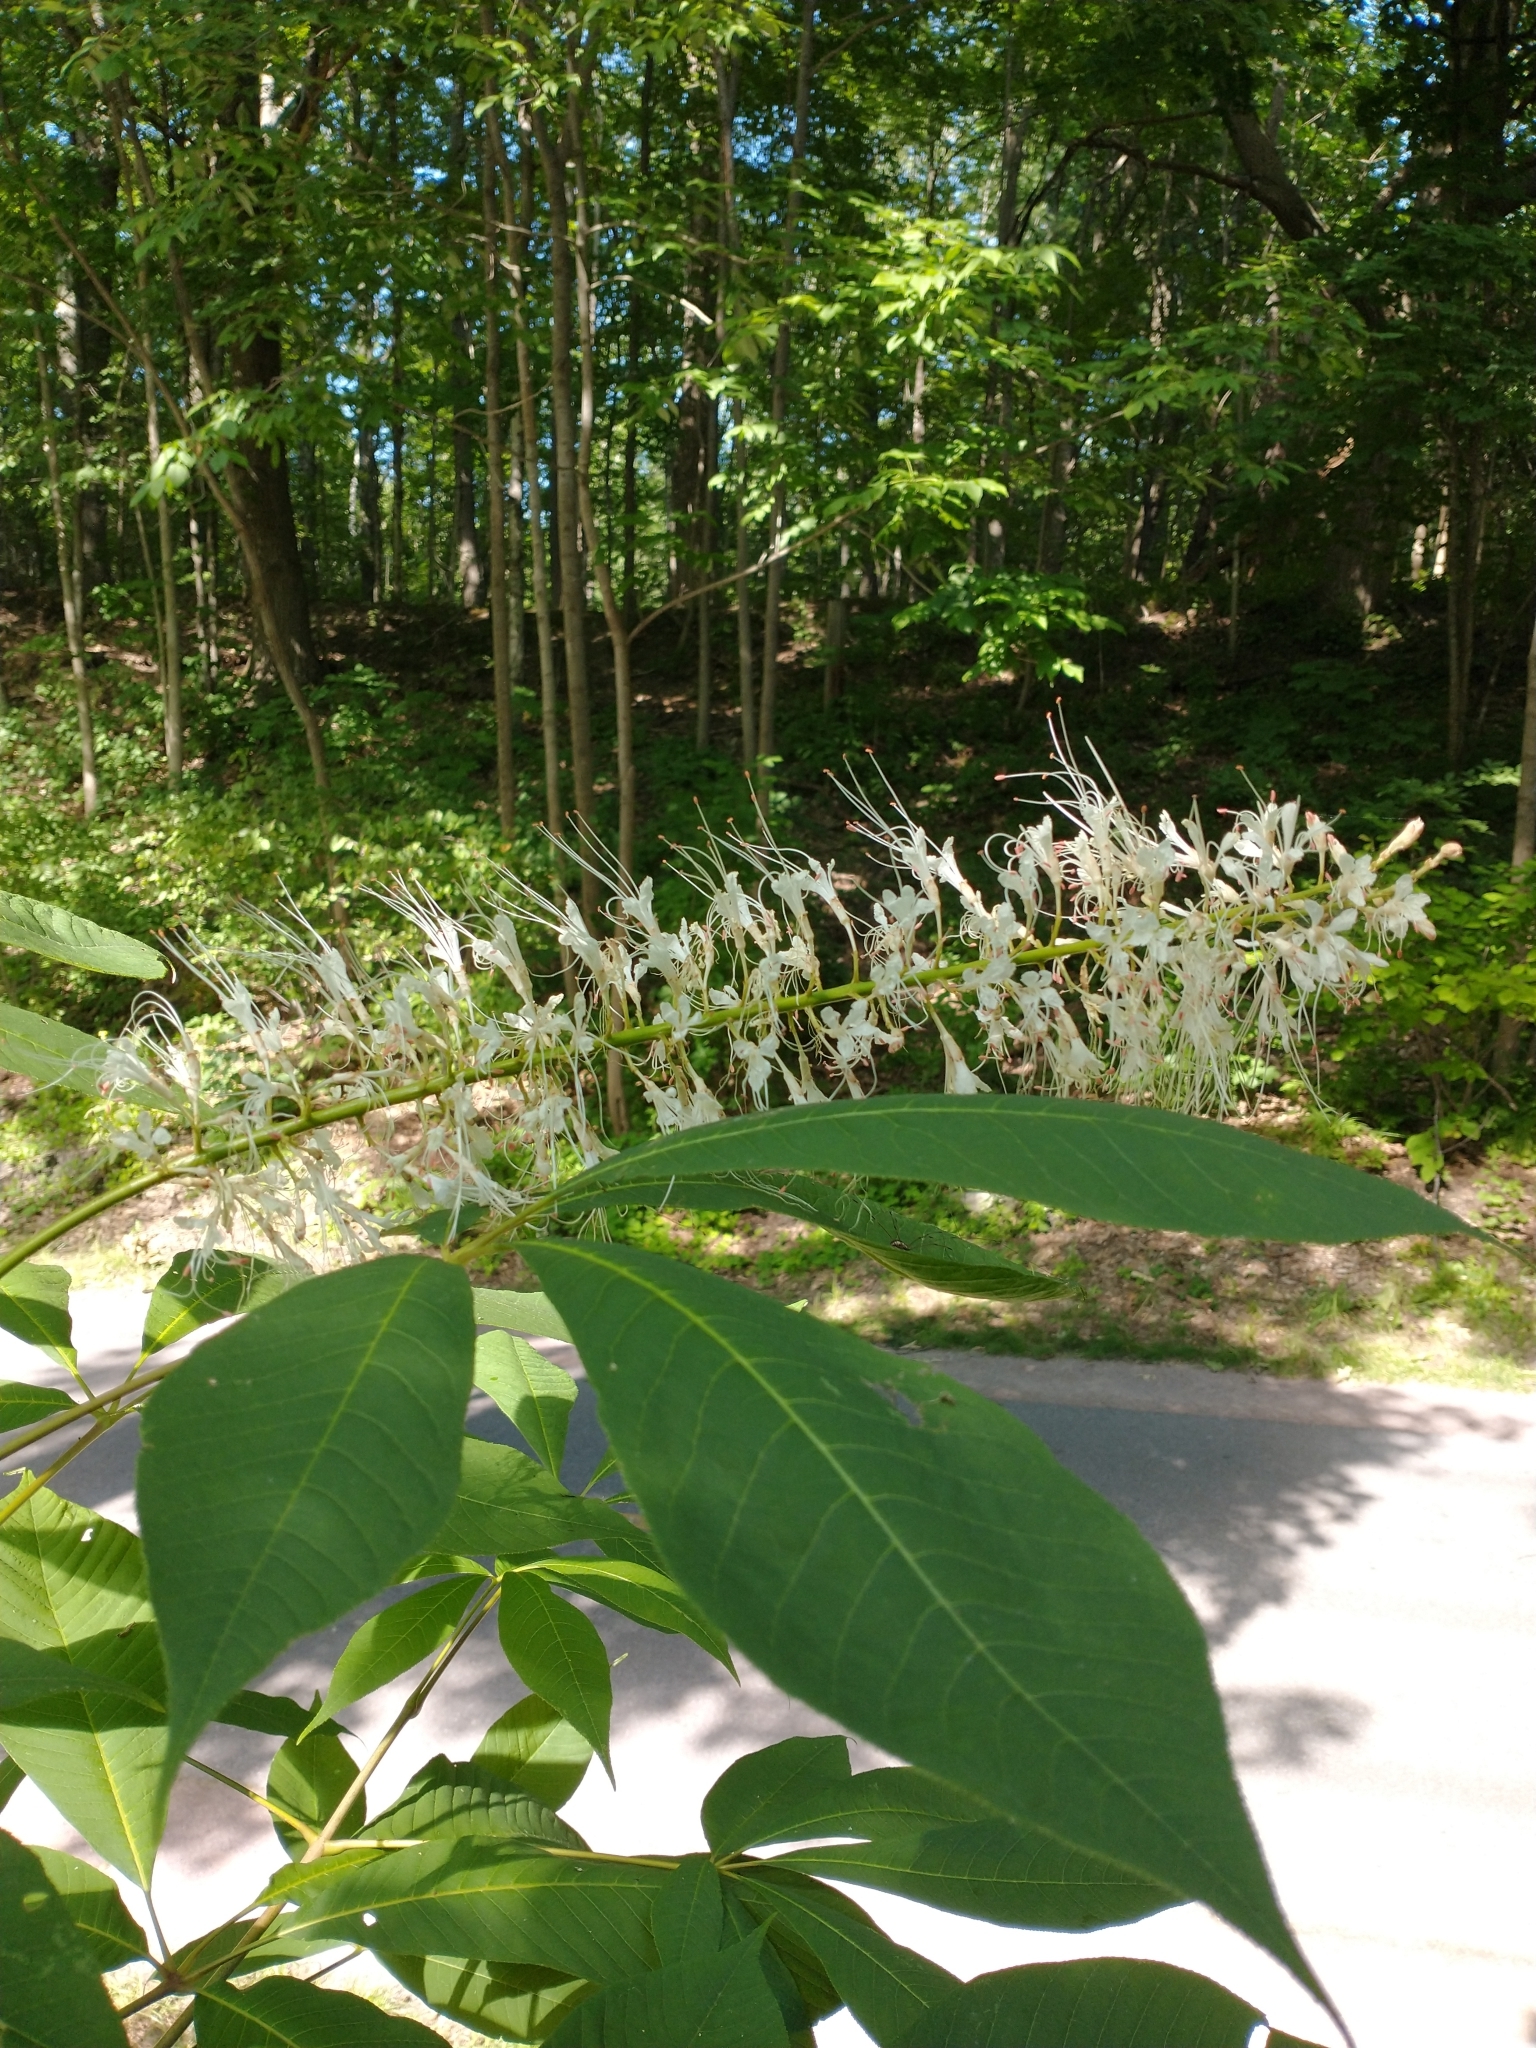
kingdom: Plantae
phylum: Tracheophyta
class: Magnoliopsida
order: Sapindales
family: Sapindaceae
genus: Aesculus
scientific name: Aesculus parviflora
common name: Bottlebrush buckeye
